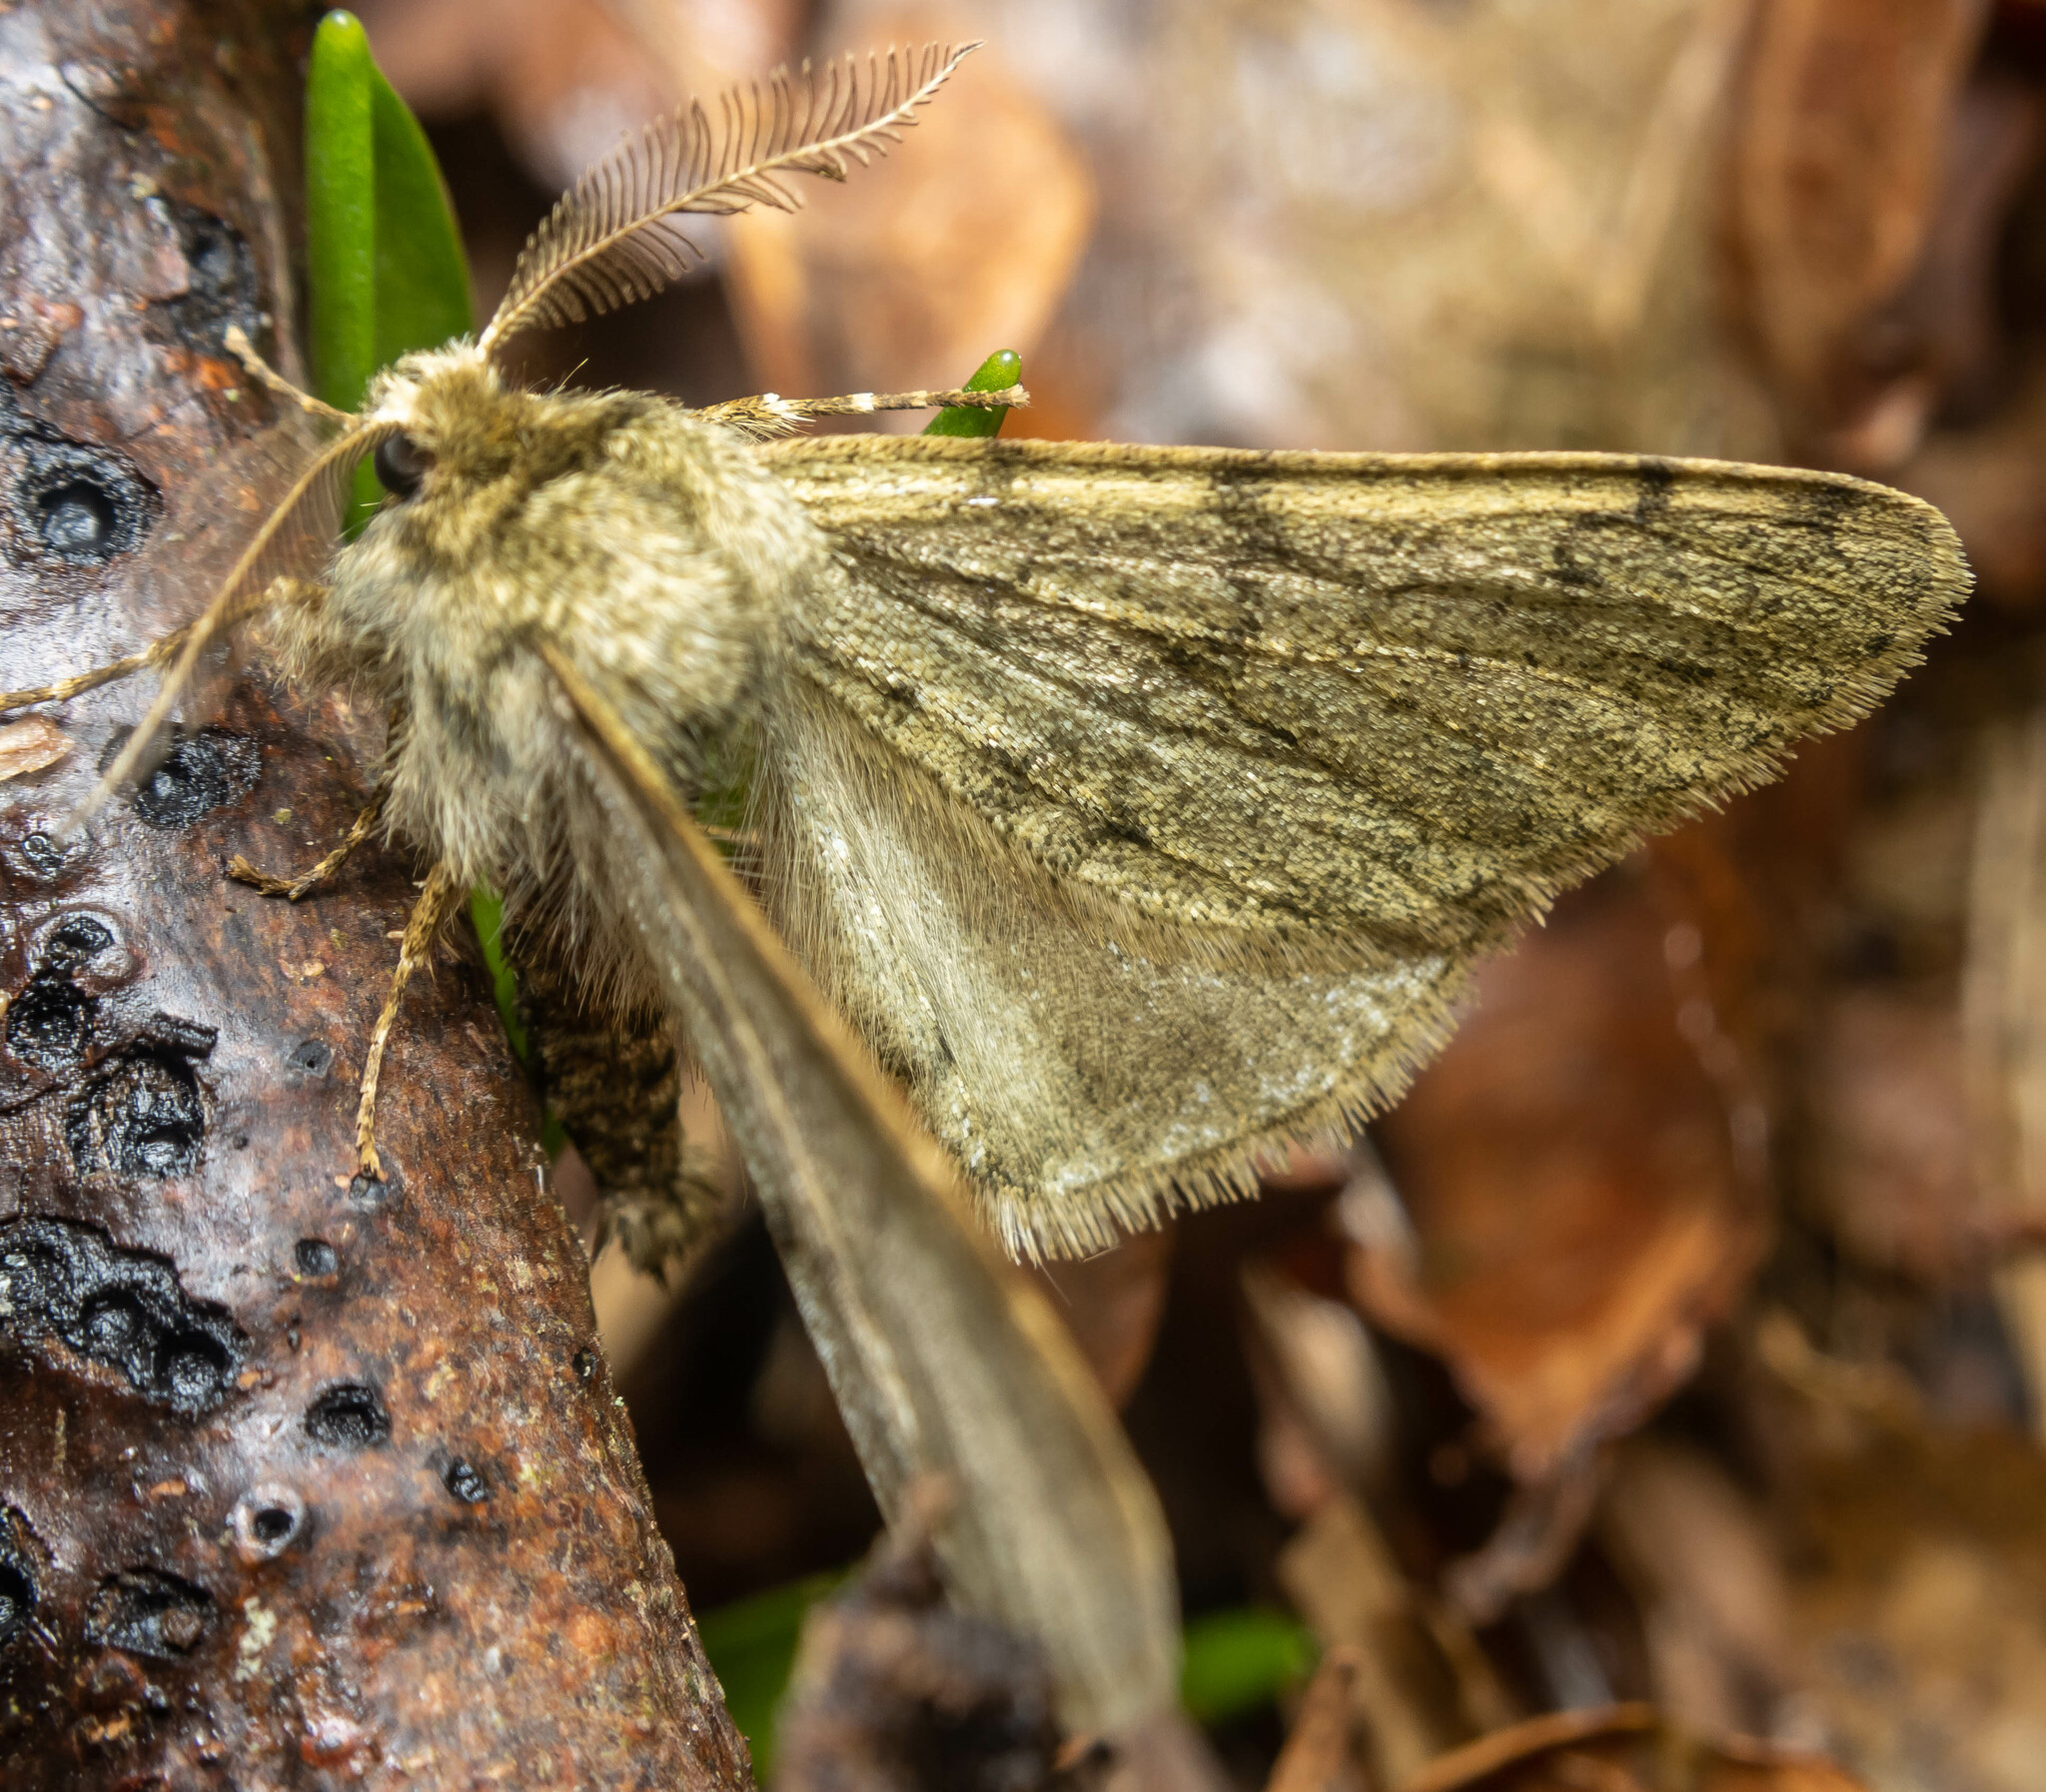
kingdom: Animalia
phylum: Arthropoda
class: Insecta
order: Lepidoptera
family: Geometridae
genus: Phigalia
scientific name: Phigalia pilosaria
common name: Pale brindled beauty
